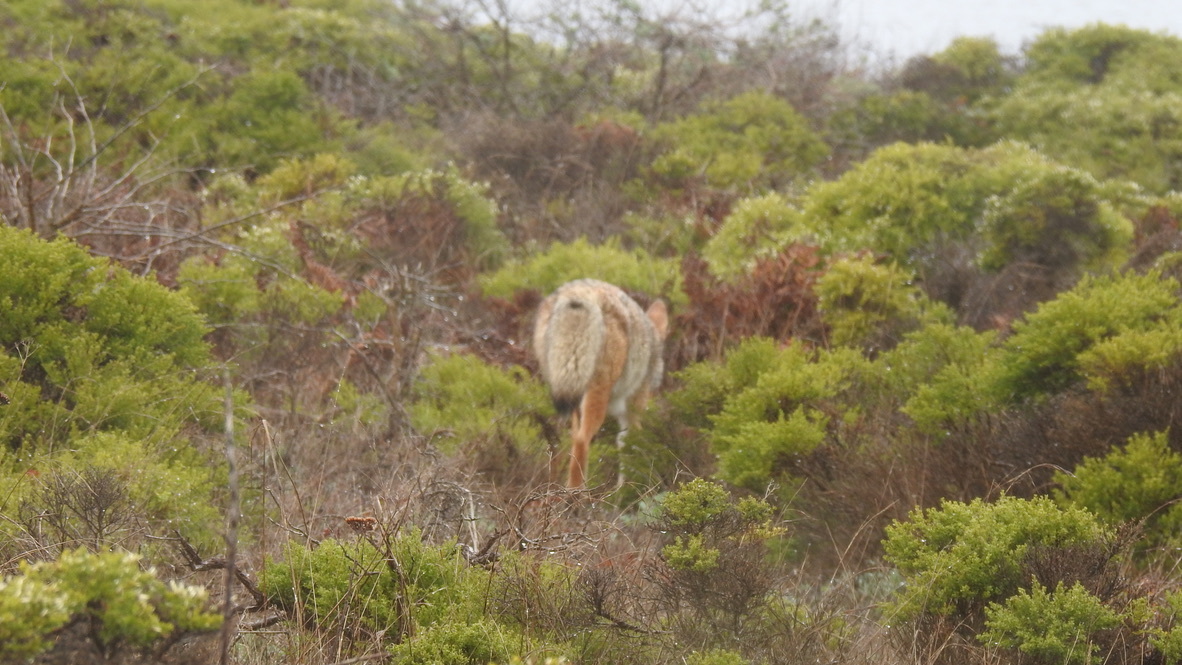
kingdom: Animalia
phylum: Chordata
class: Mammalia
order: Carnivora
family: Canidae
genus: Canis
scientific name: Canis latrans
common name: Coyote
